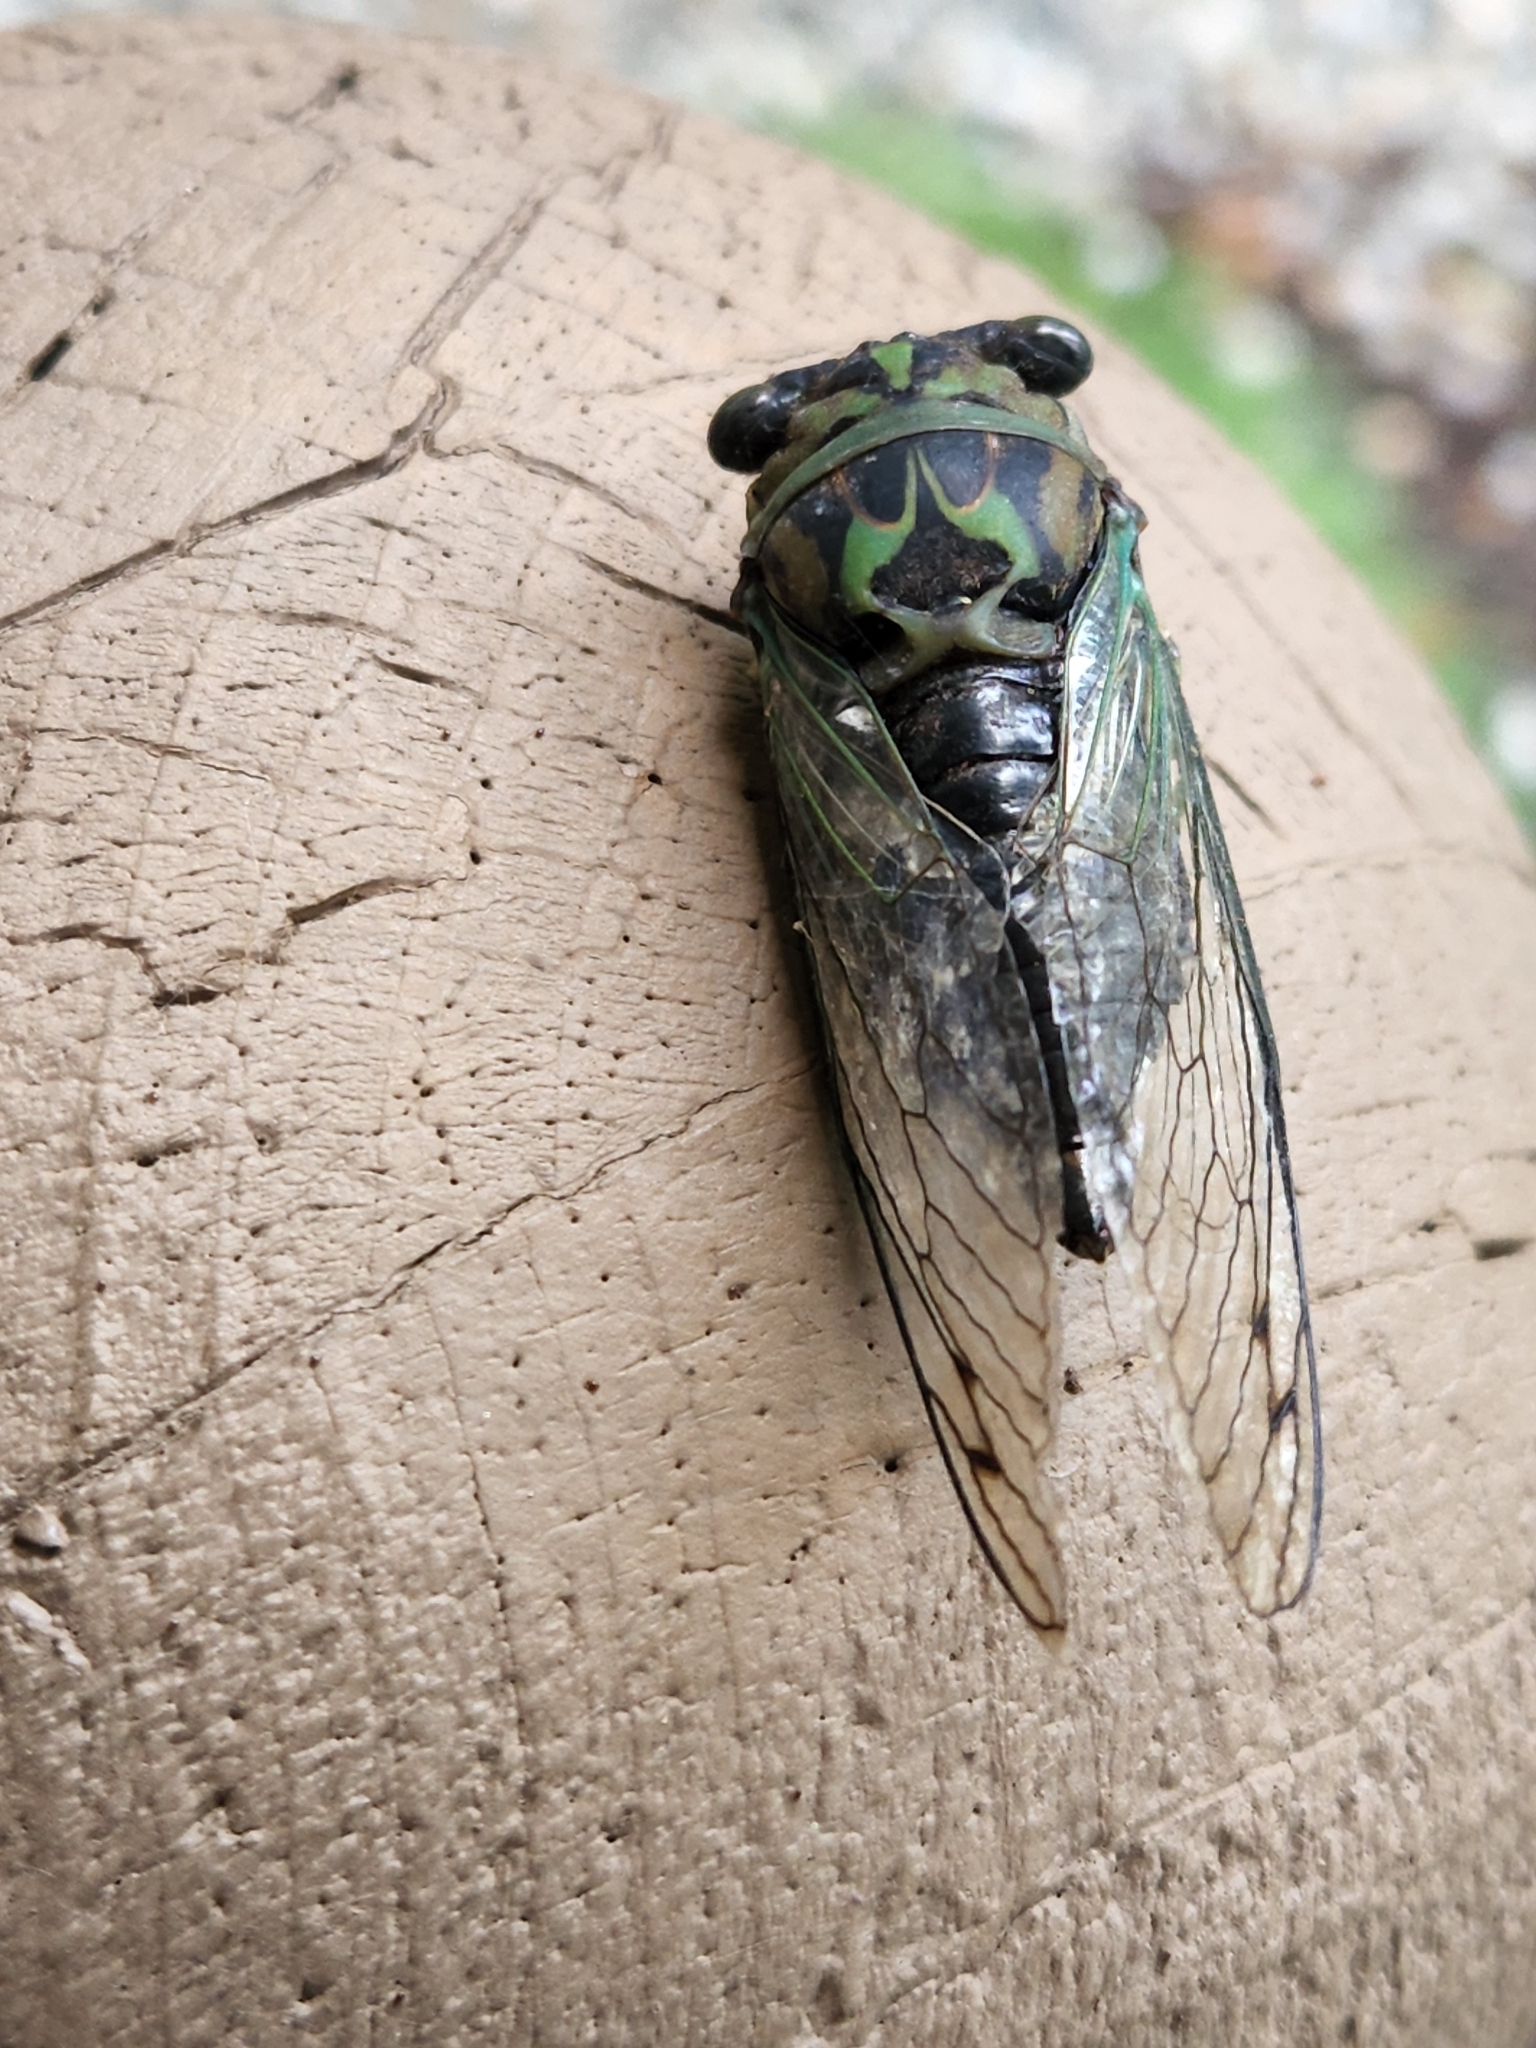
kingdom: Animalia
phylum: Arthropoda
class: Insecta
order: Hemiptera
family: Cicadidae
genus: Neotibicen
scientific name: Neotibicen linnei
